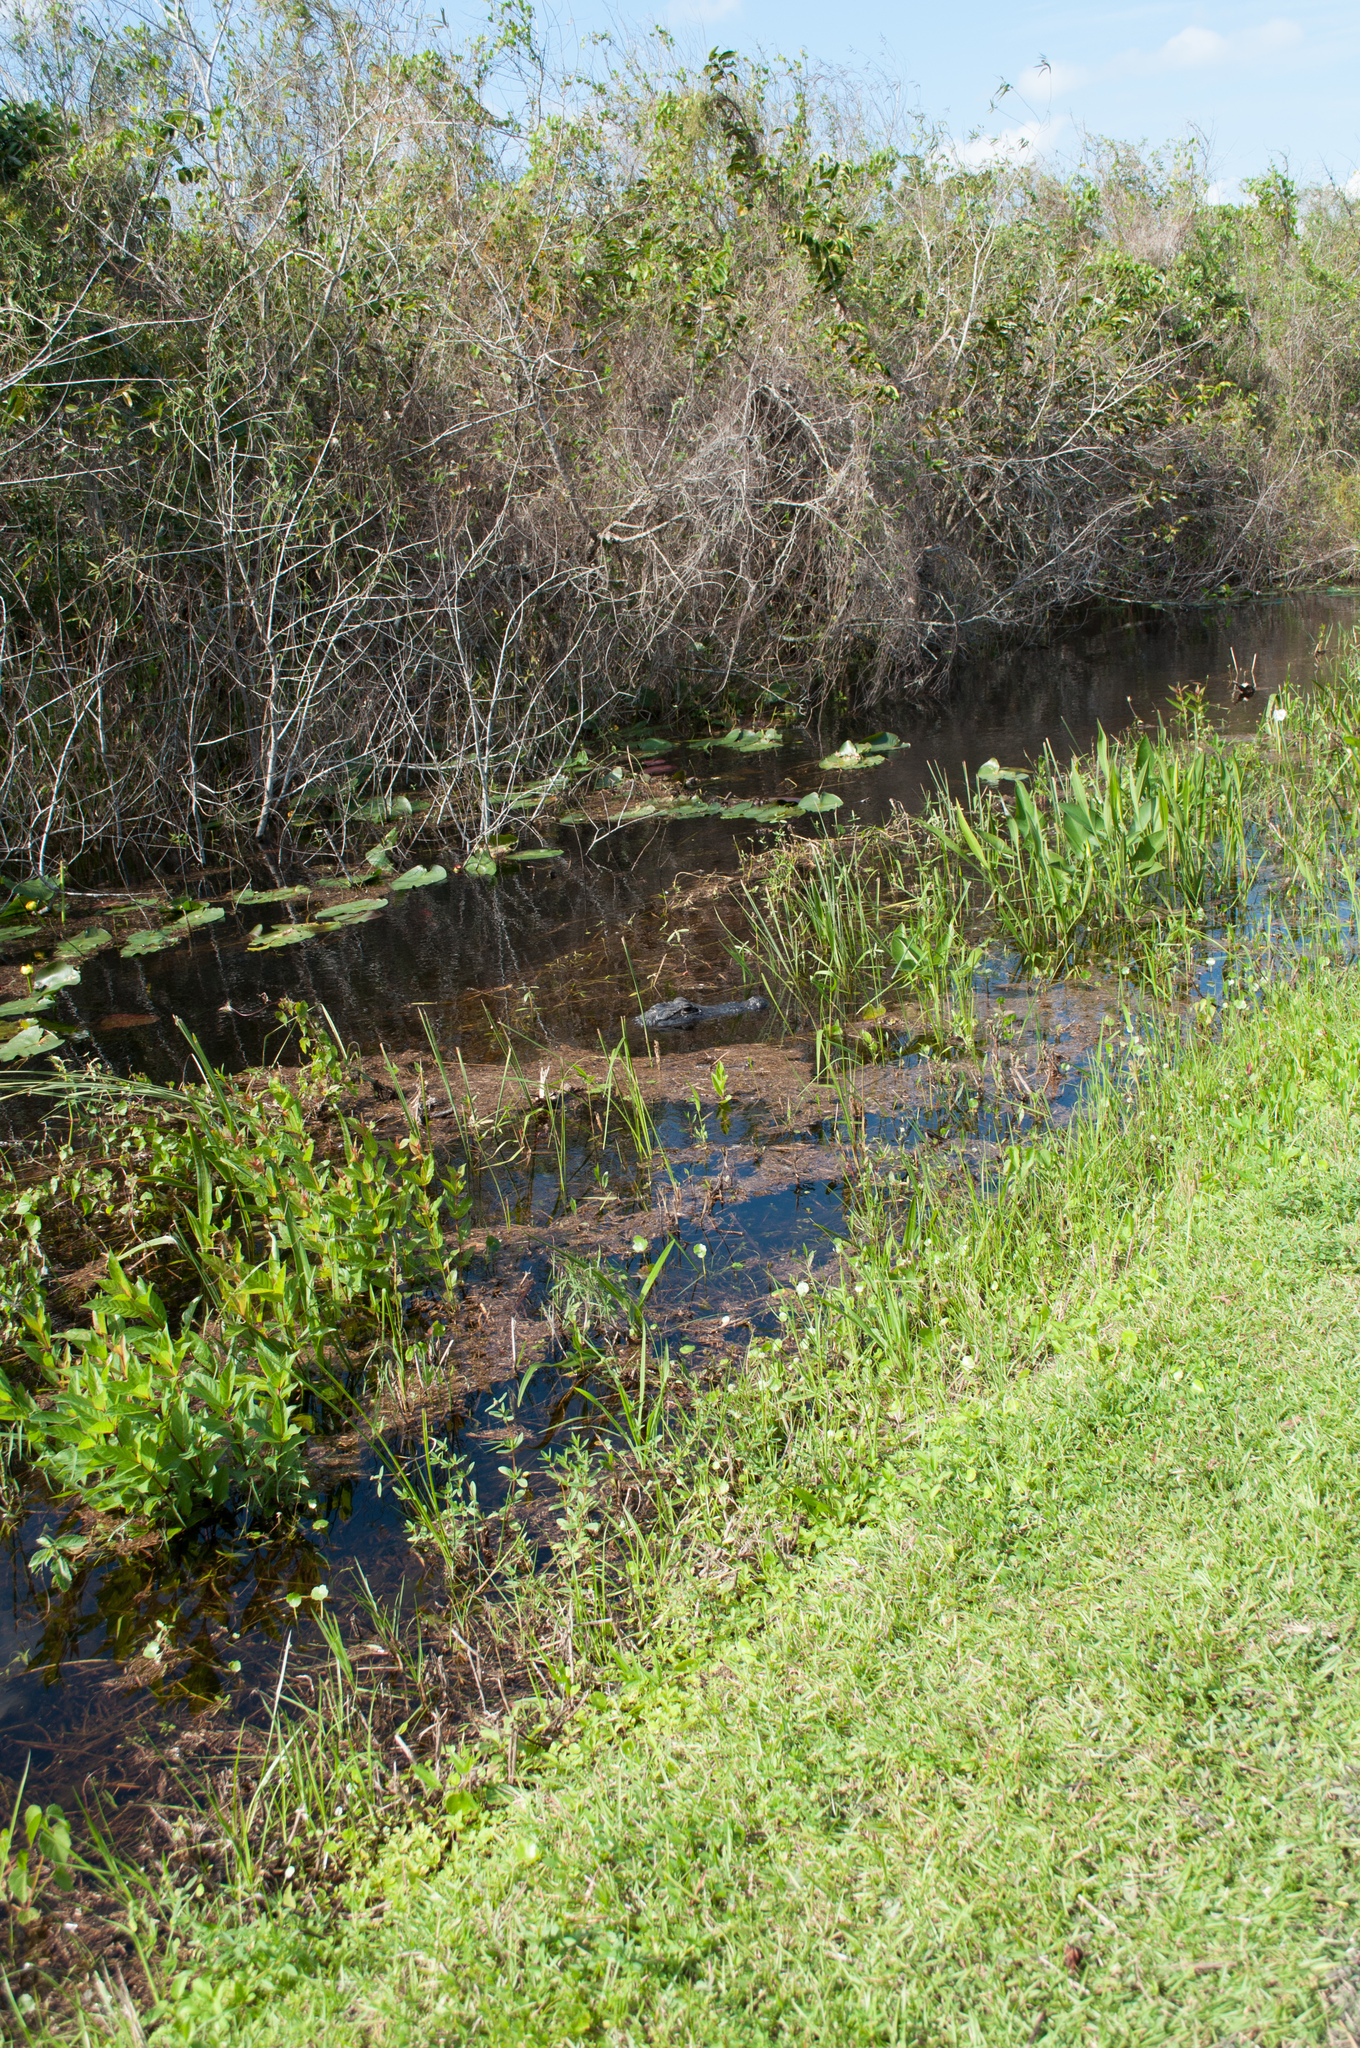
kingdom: Animalia
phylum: Chordata
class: Crocodylia
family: Alligatoridae
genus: Alligator
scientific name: Alligator mississippiensis
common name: American alligator
